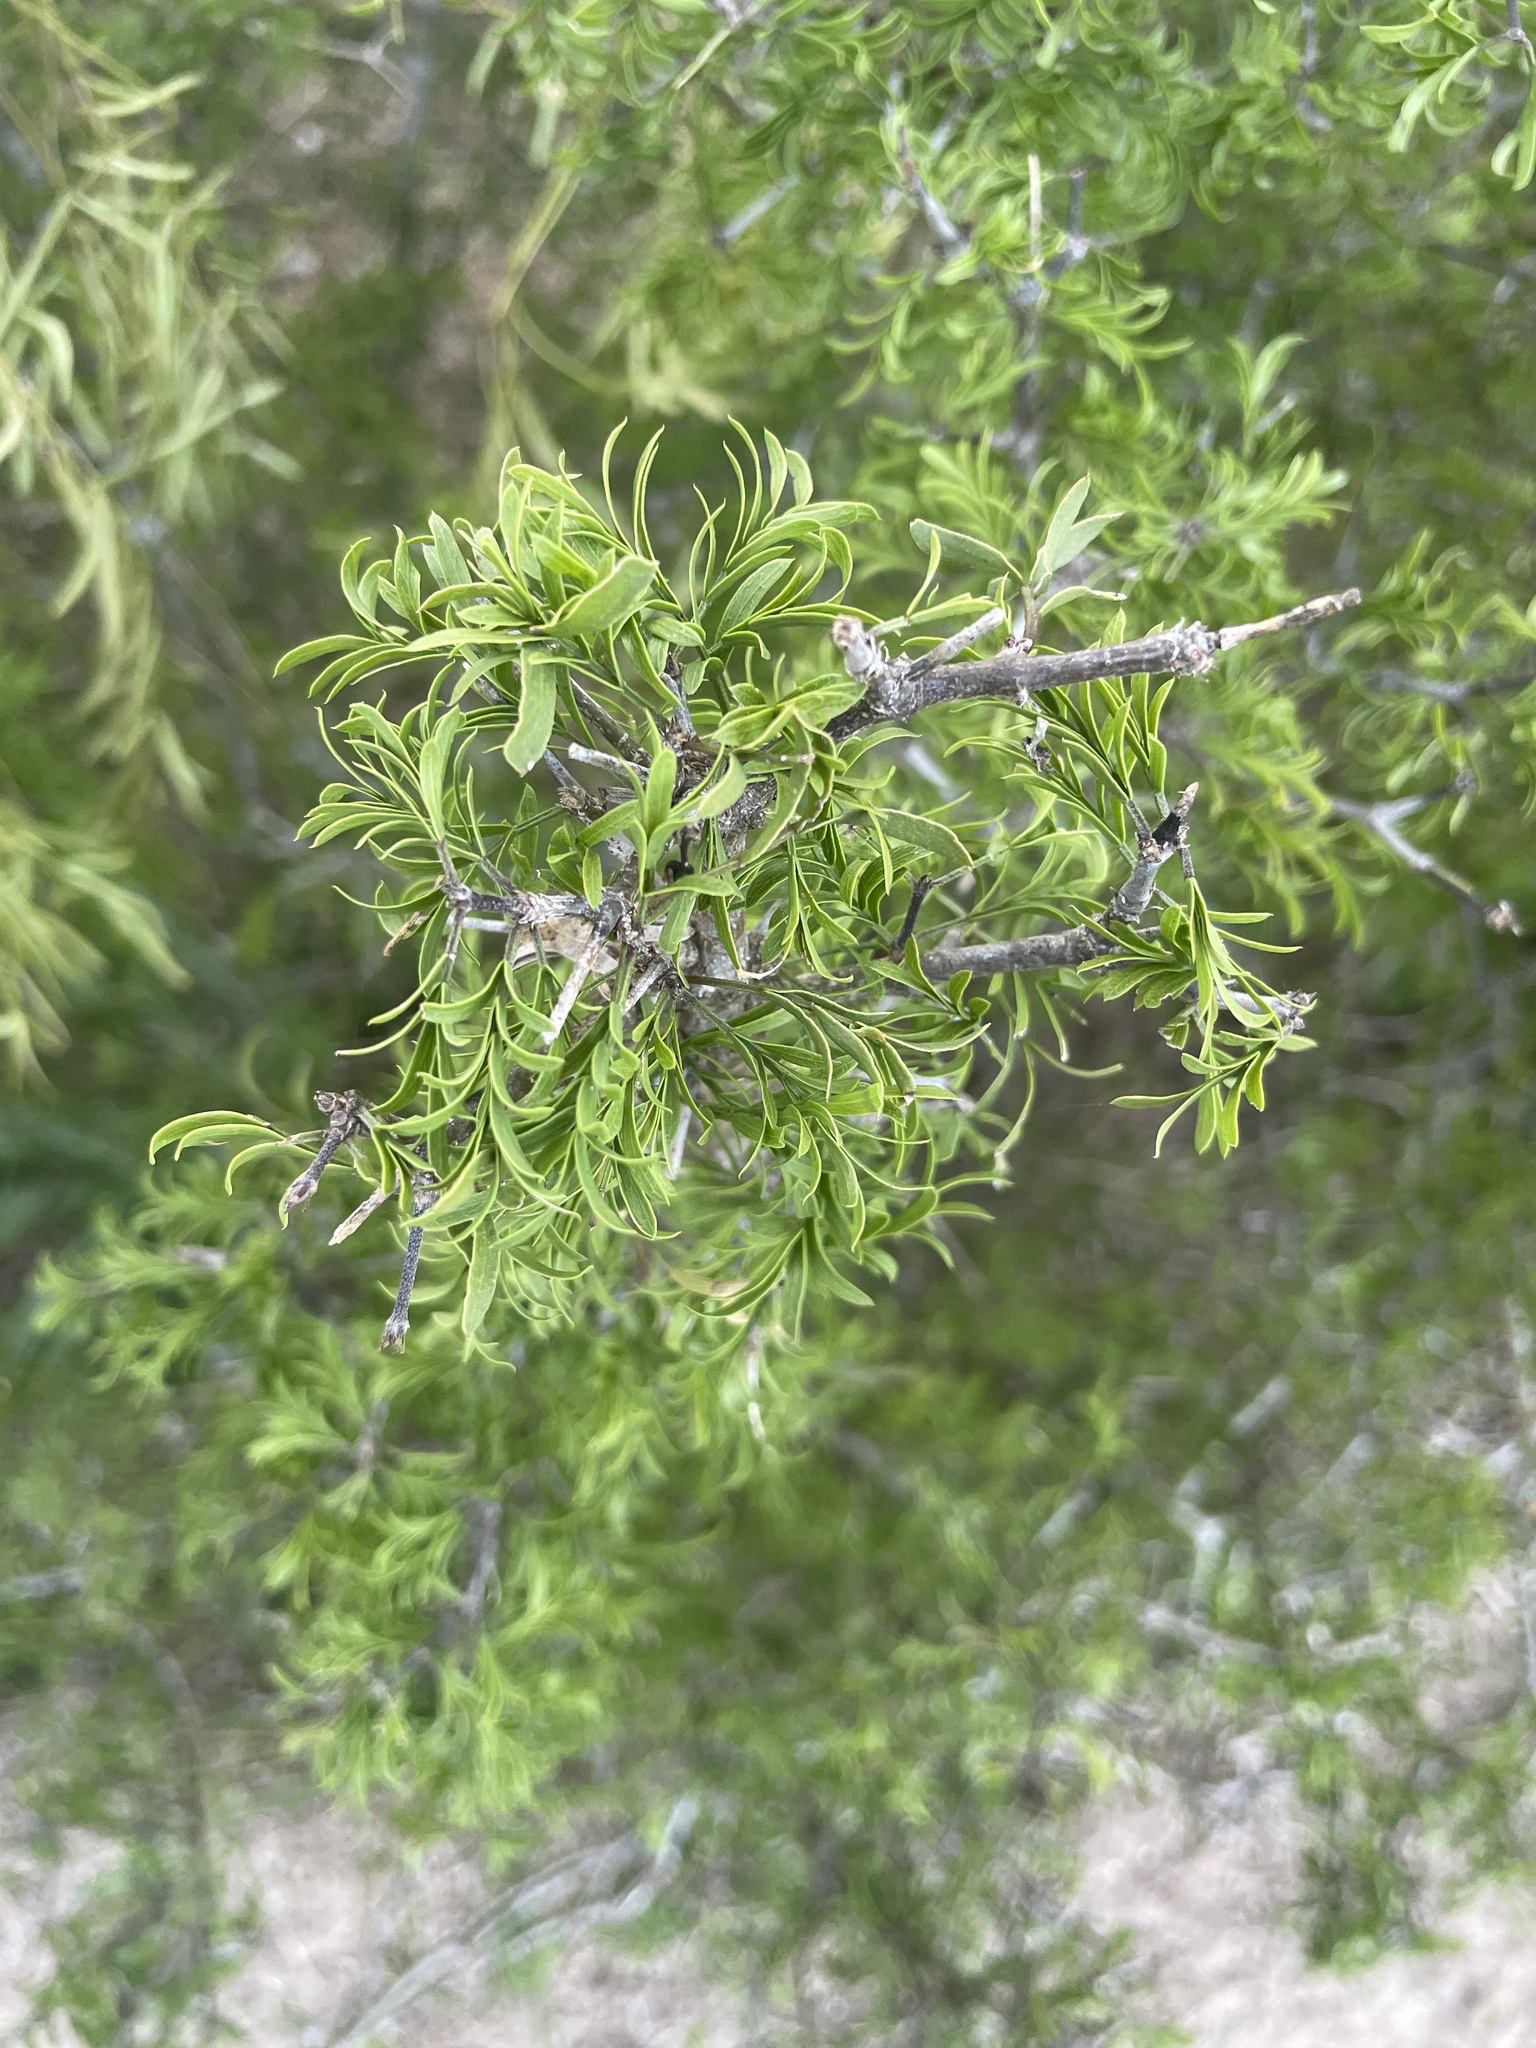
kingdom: Plantae
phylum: Tracheophyta
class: Magnoliopsida
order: Zygophyllales
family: Zygophyllaceae
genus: Porlieria
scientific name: Porlieria angustifolia
